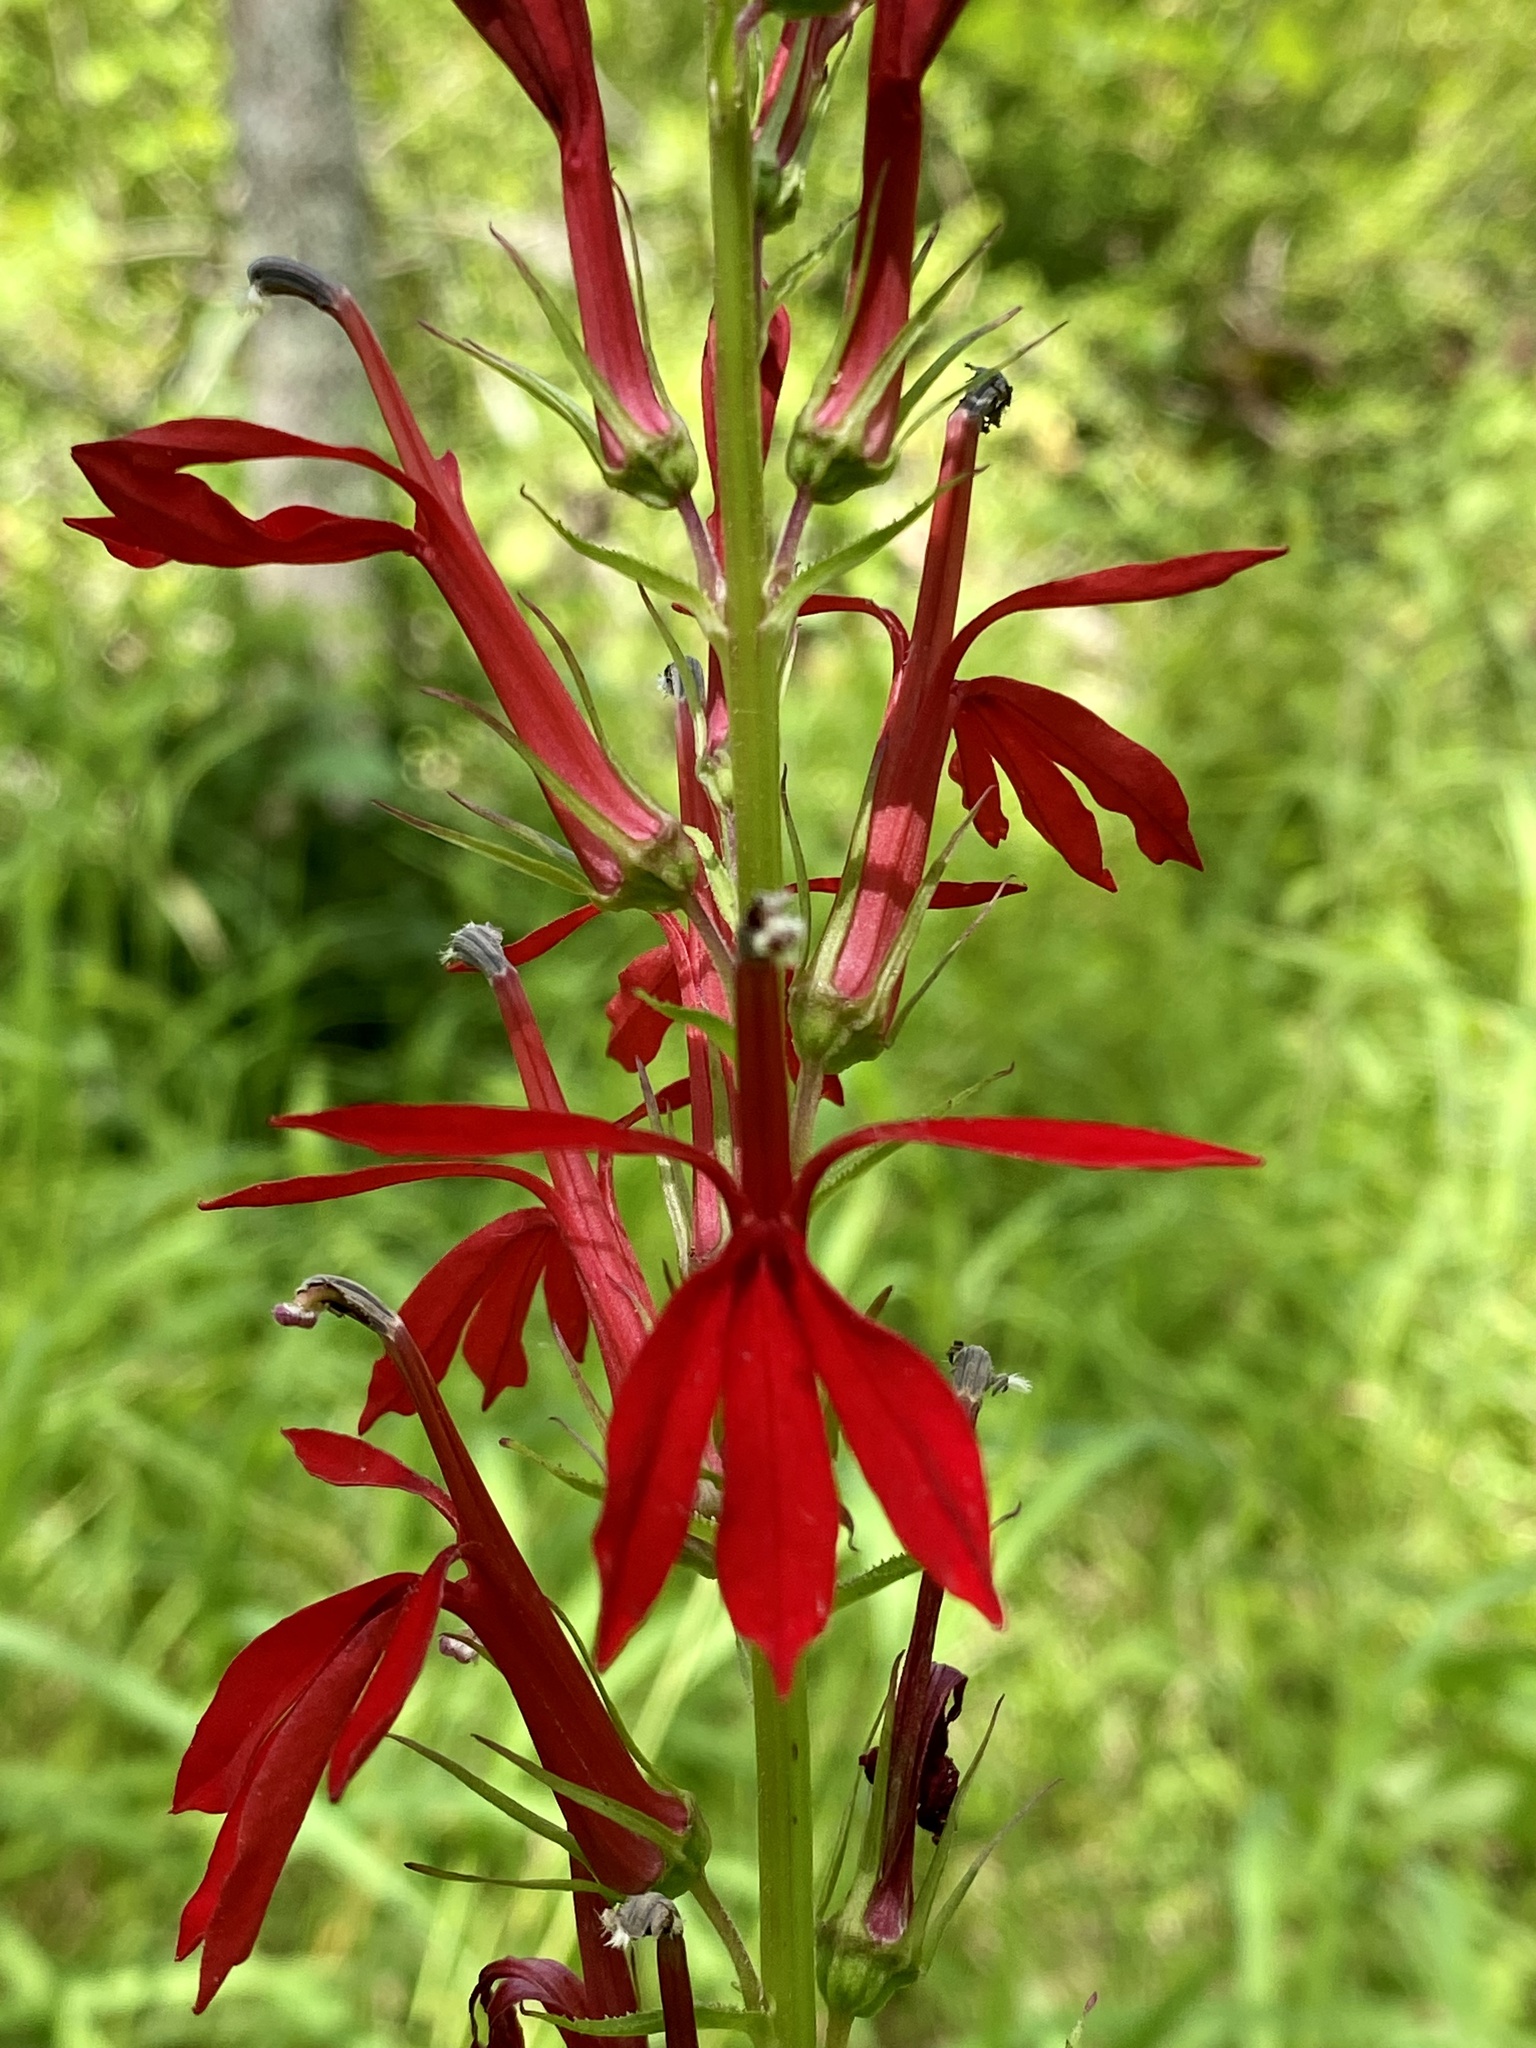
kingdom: Plantae
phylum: Tracheophyta
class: Magnoliopsida
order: Asterales
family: Campanulaceae
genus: Lobelia
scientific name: Lobelia cardinalis
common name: Cardinal flower
